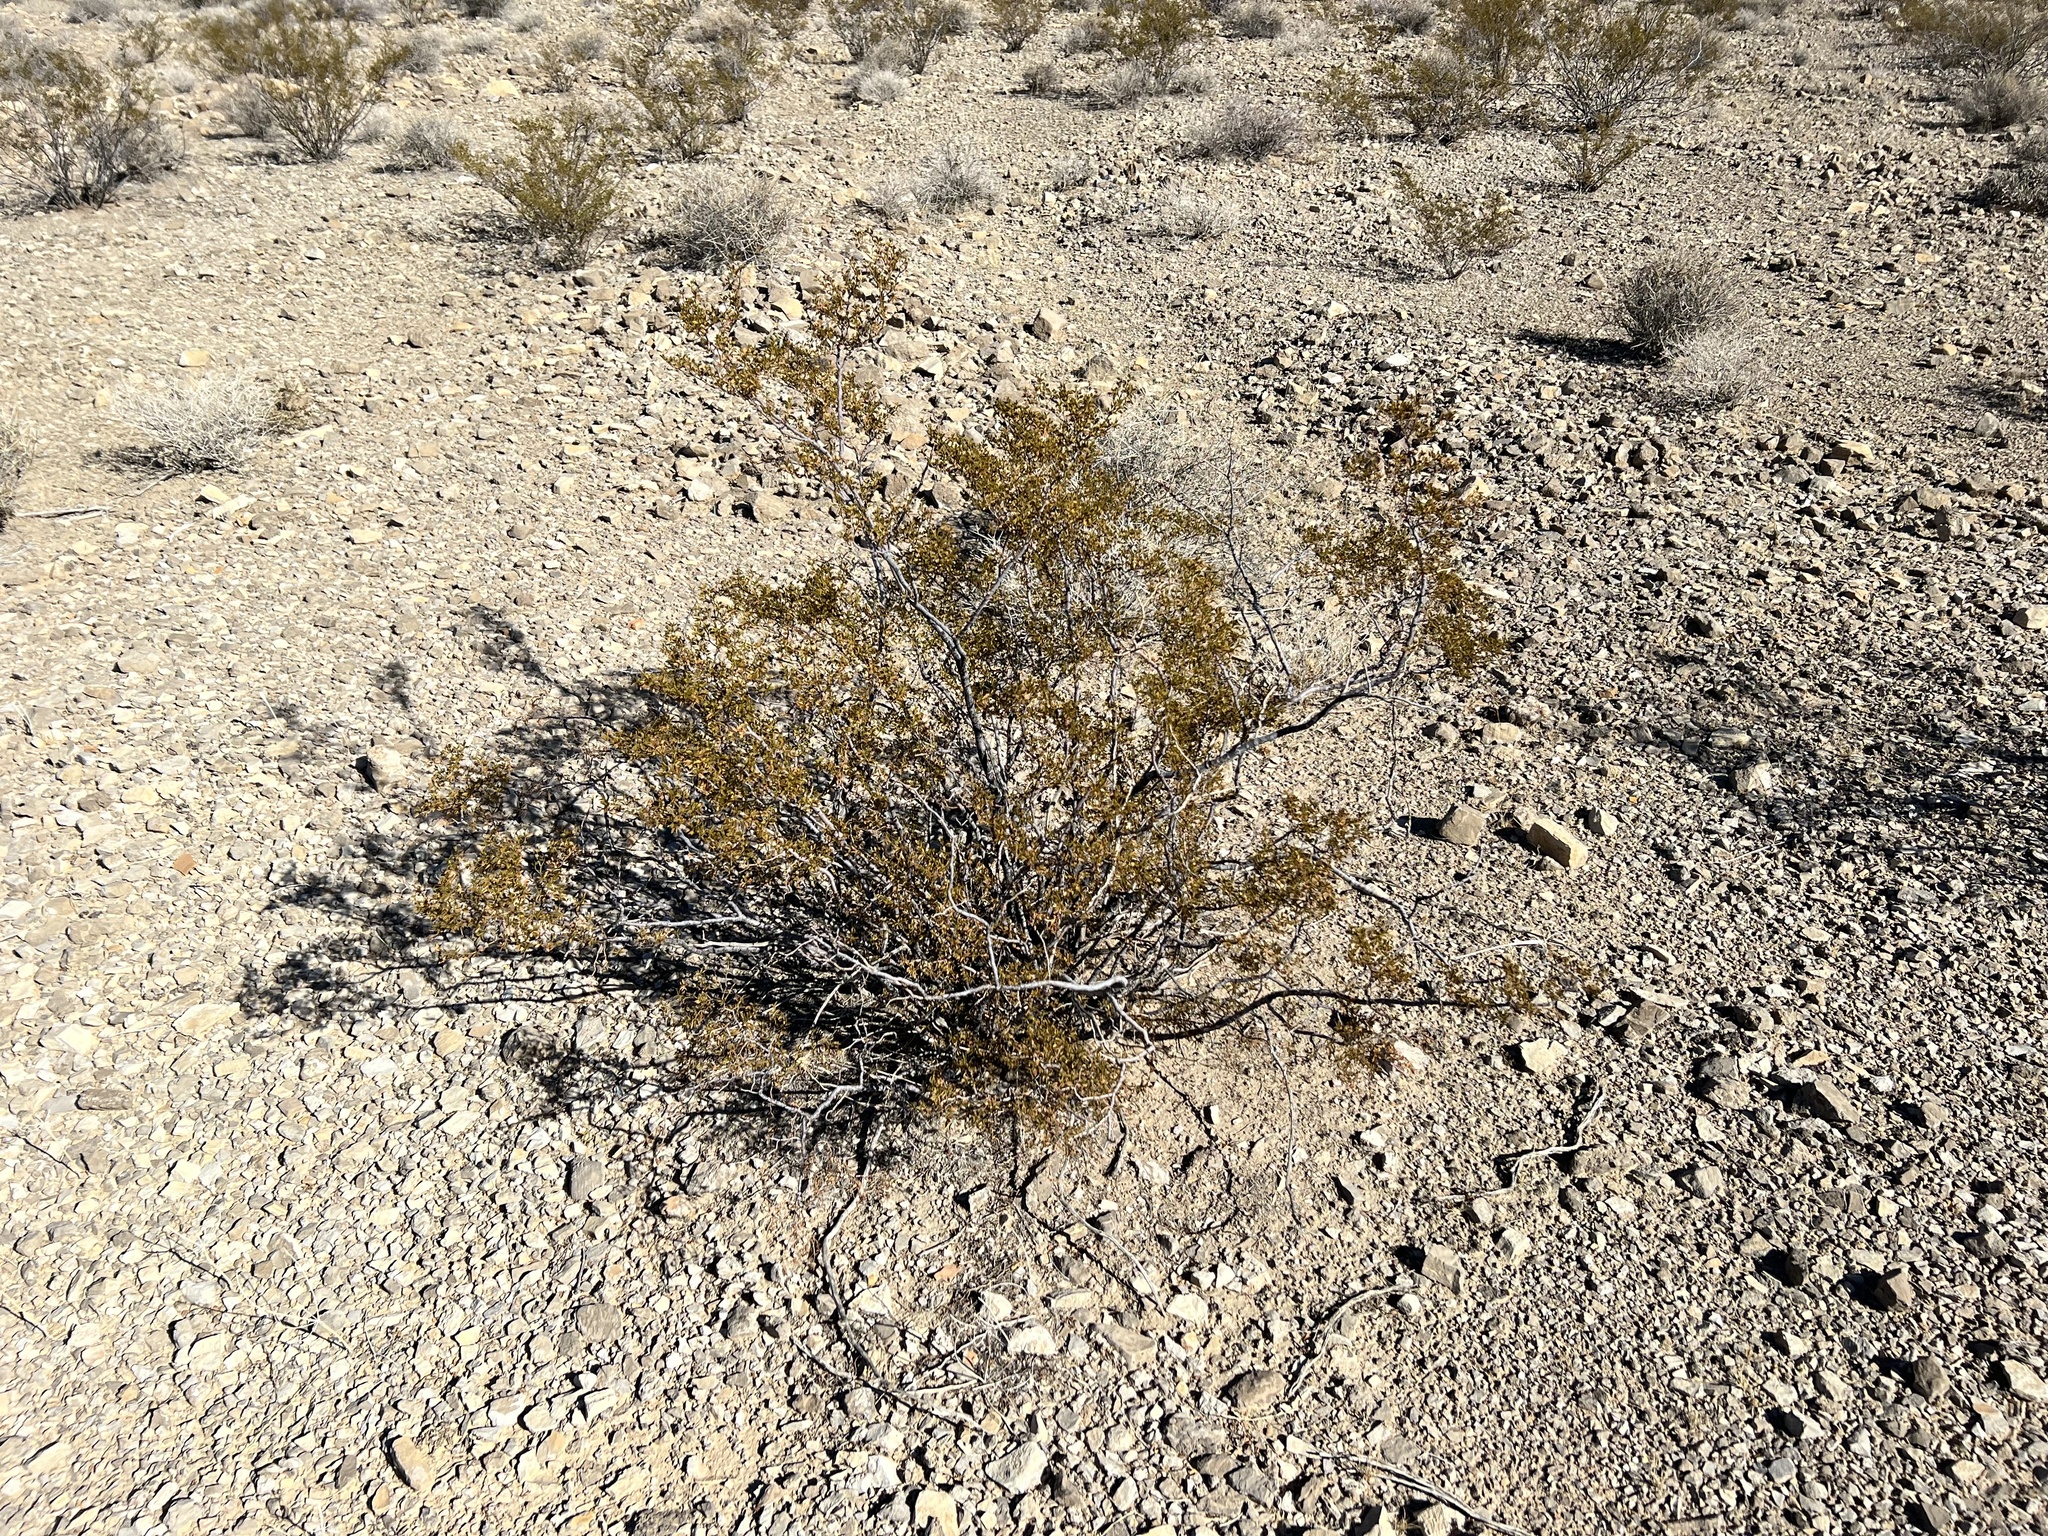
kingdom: Plantae
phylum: Tracheophyta
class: Magnoliopsida
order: Zygophyllales
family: Zygophyllaceae
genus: Larrea
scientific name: Larrea tridentata
